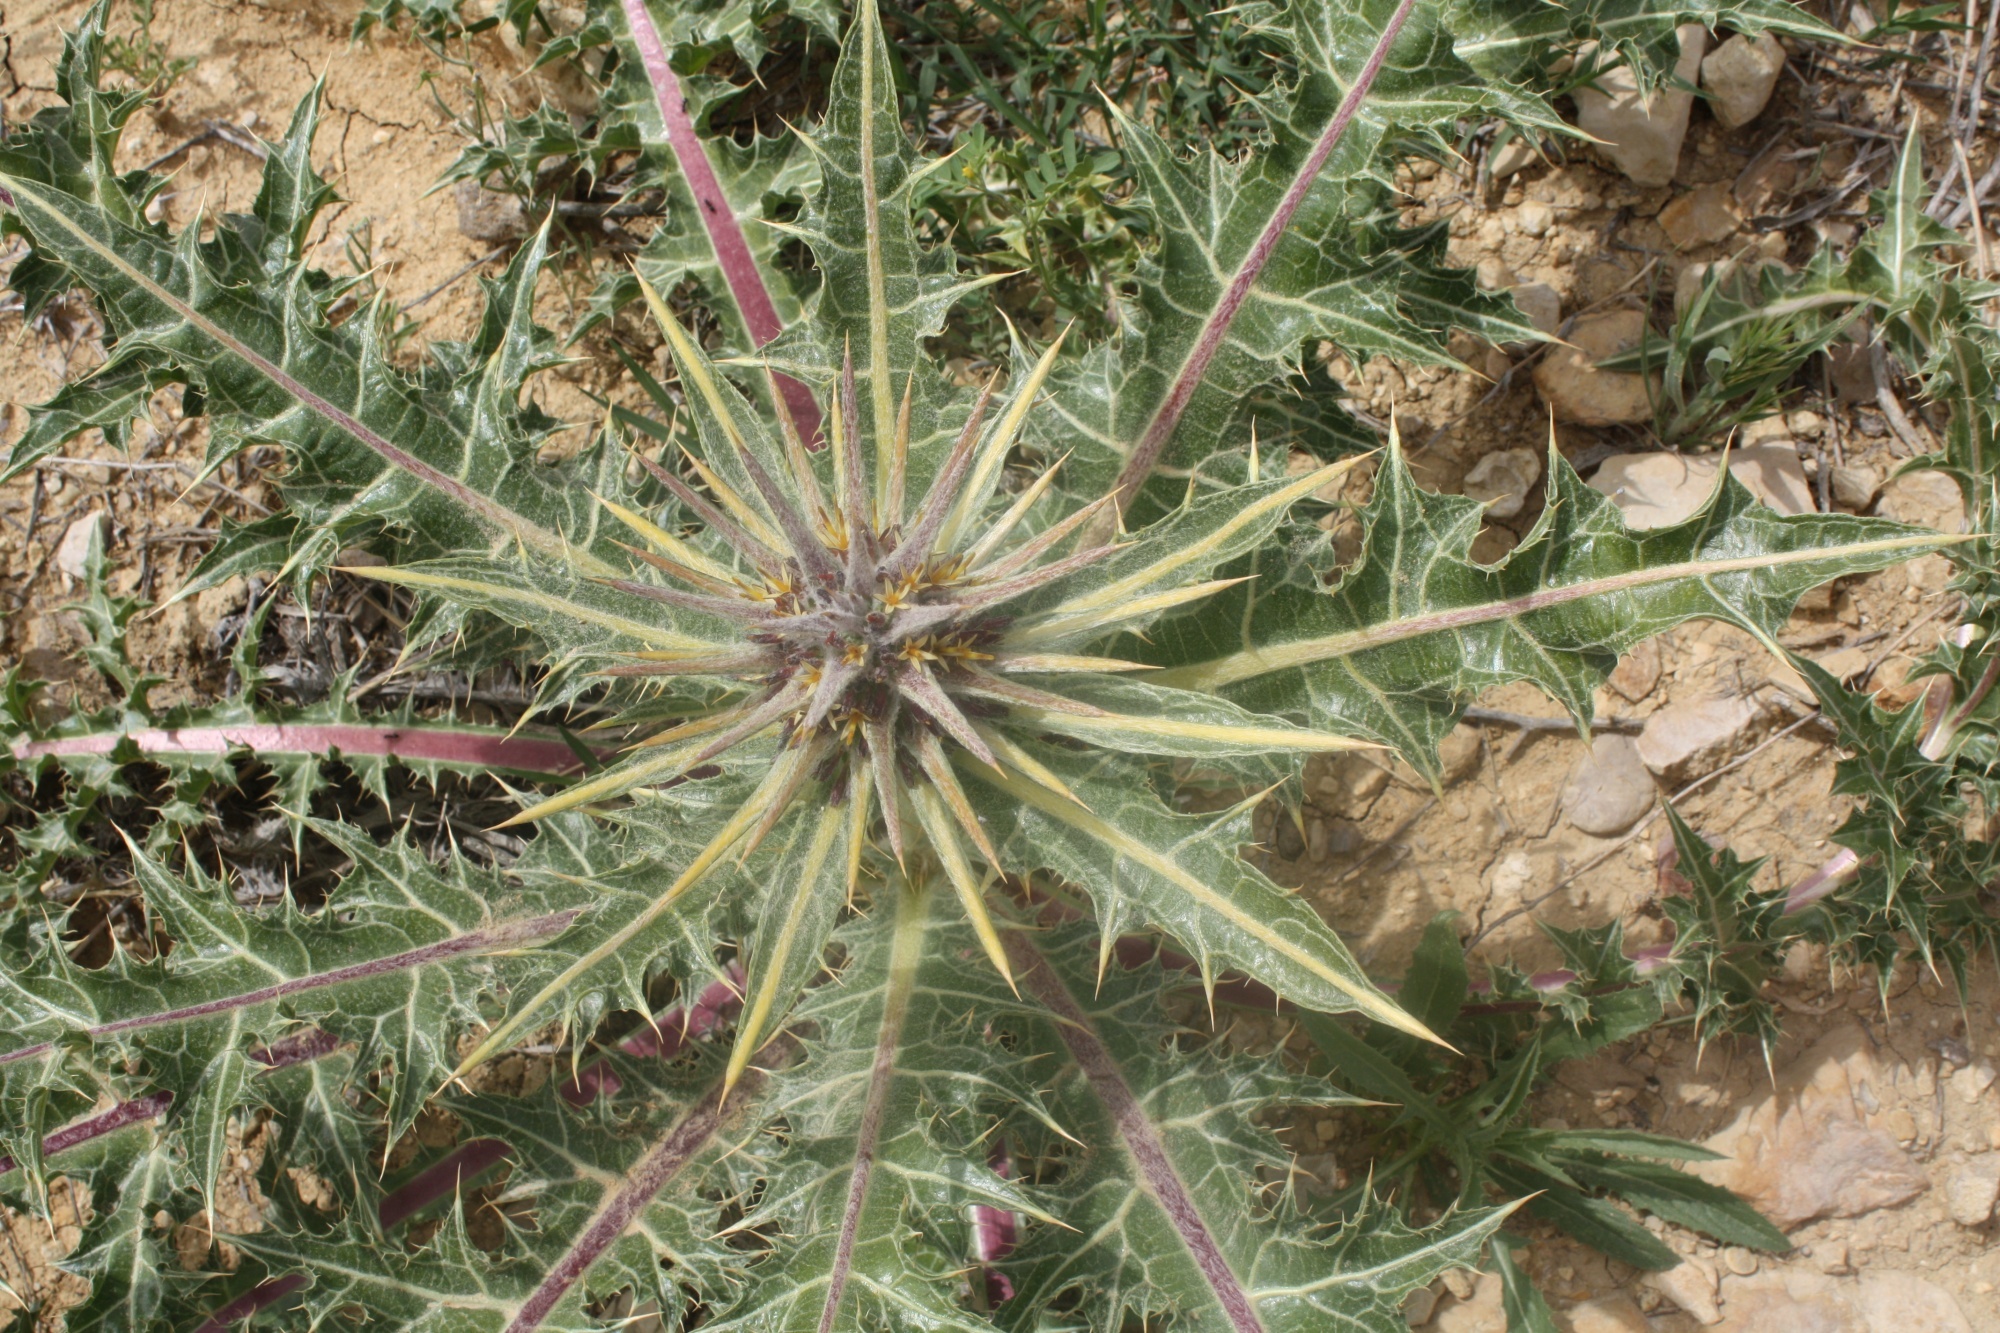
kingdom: Plantae
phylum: Tracheophyta
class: Magnoliopsida
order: Asterales
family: Asteraceae
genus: Gundelia
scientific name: Gundelia tournefortii
